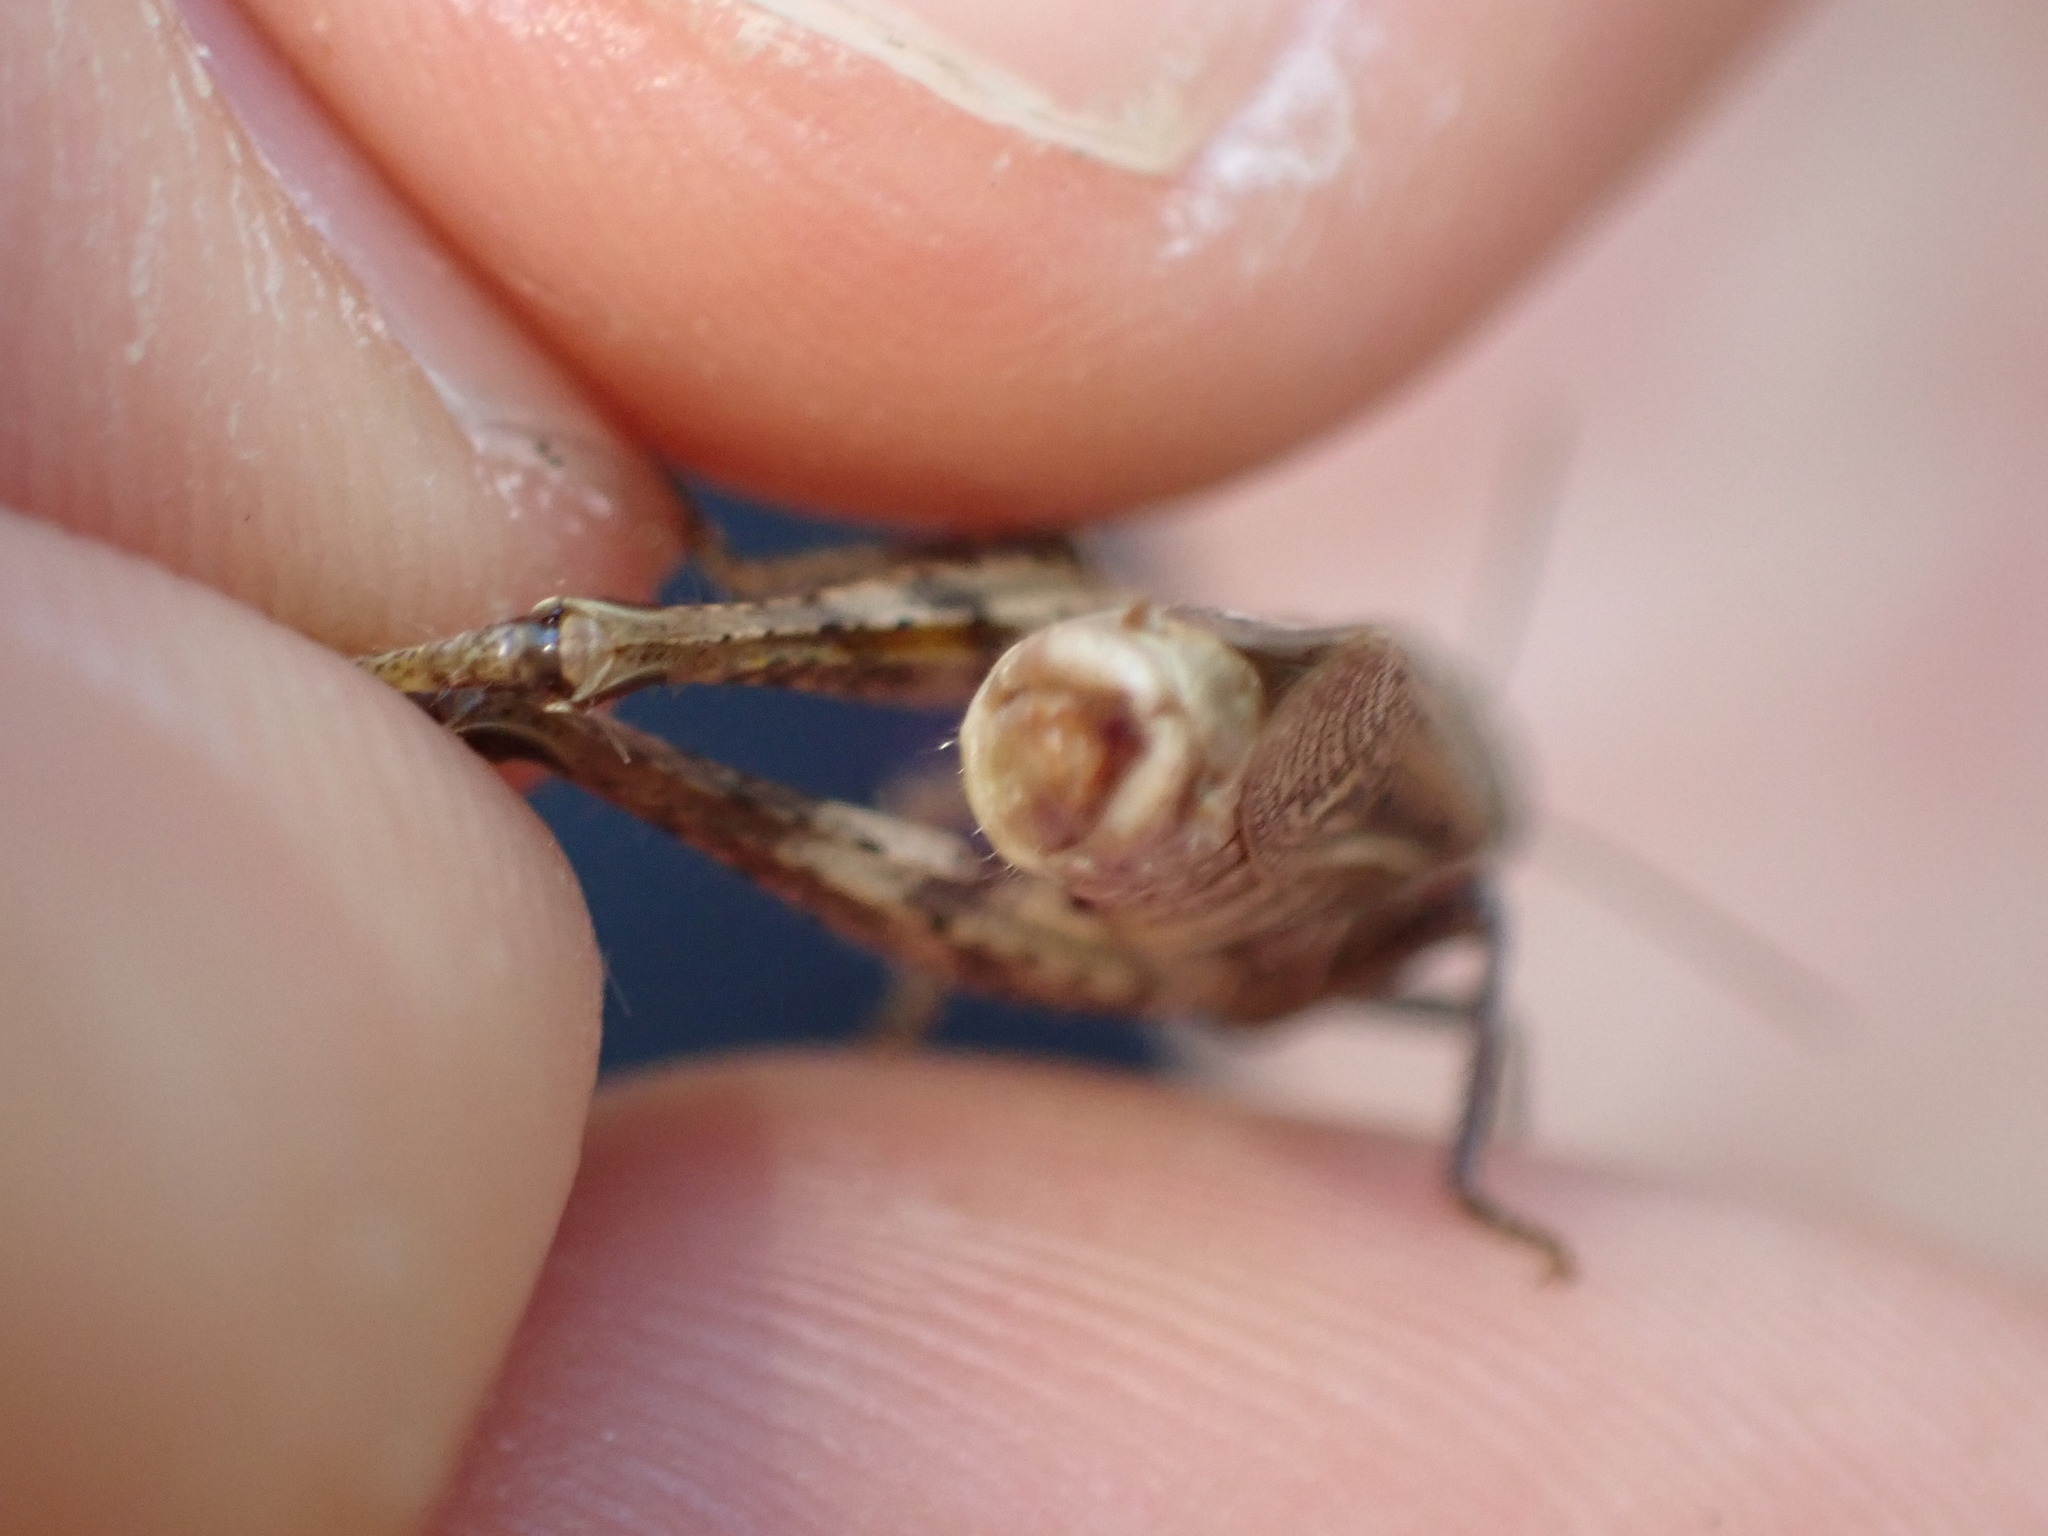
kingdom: Animalia
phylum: Arthropoda
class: Insecta
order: Orthoptera
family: Acrididae
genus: Glyptobothrus
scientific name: Glyptobothrus
